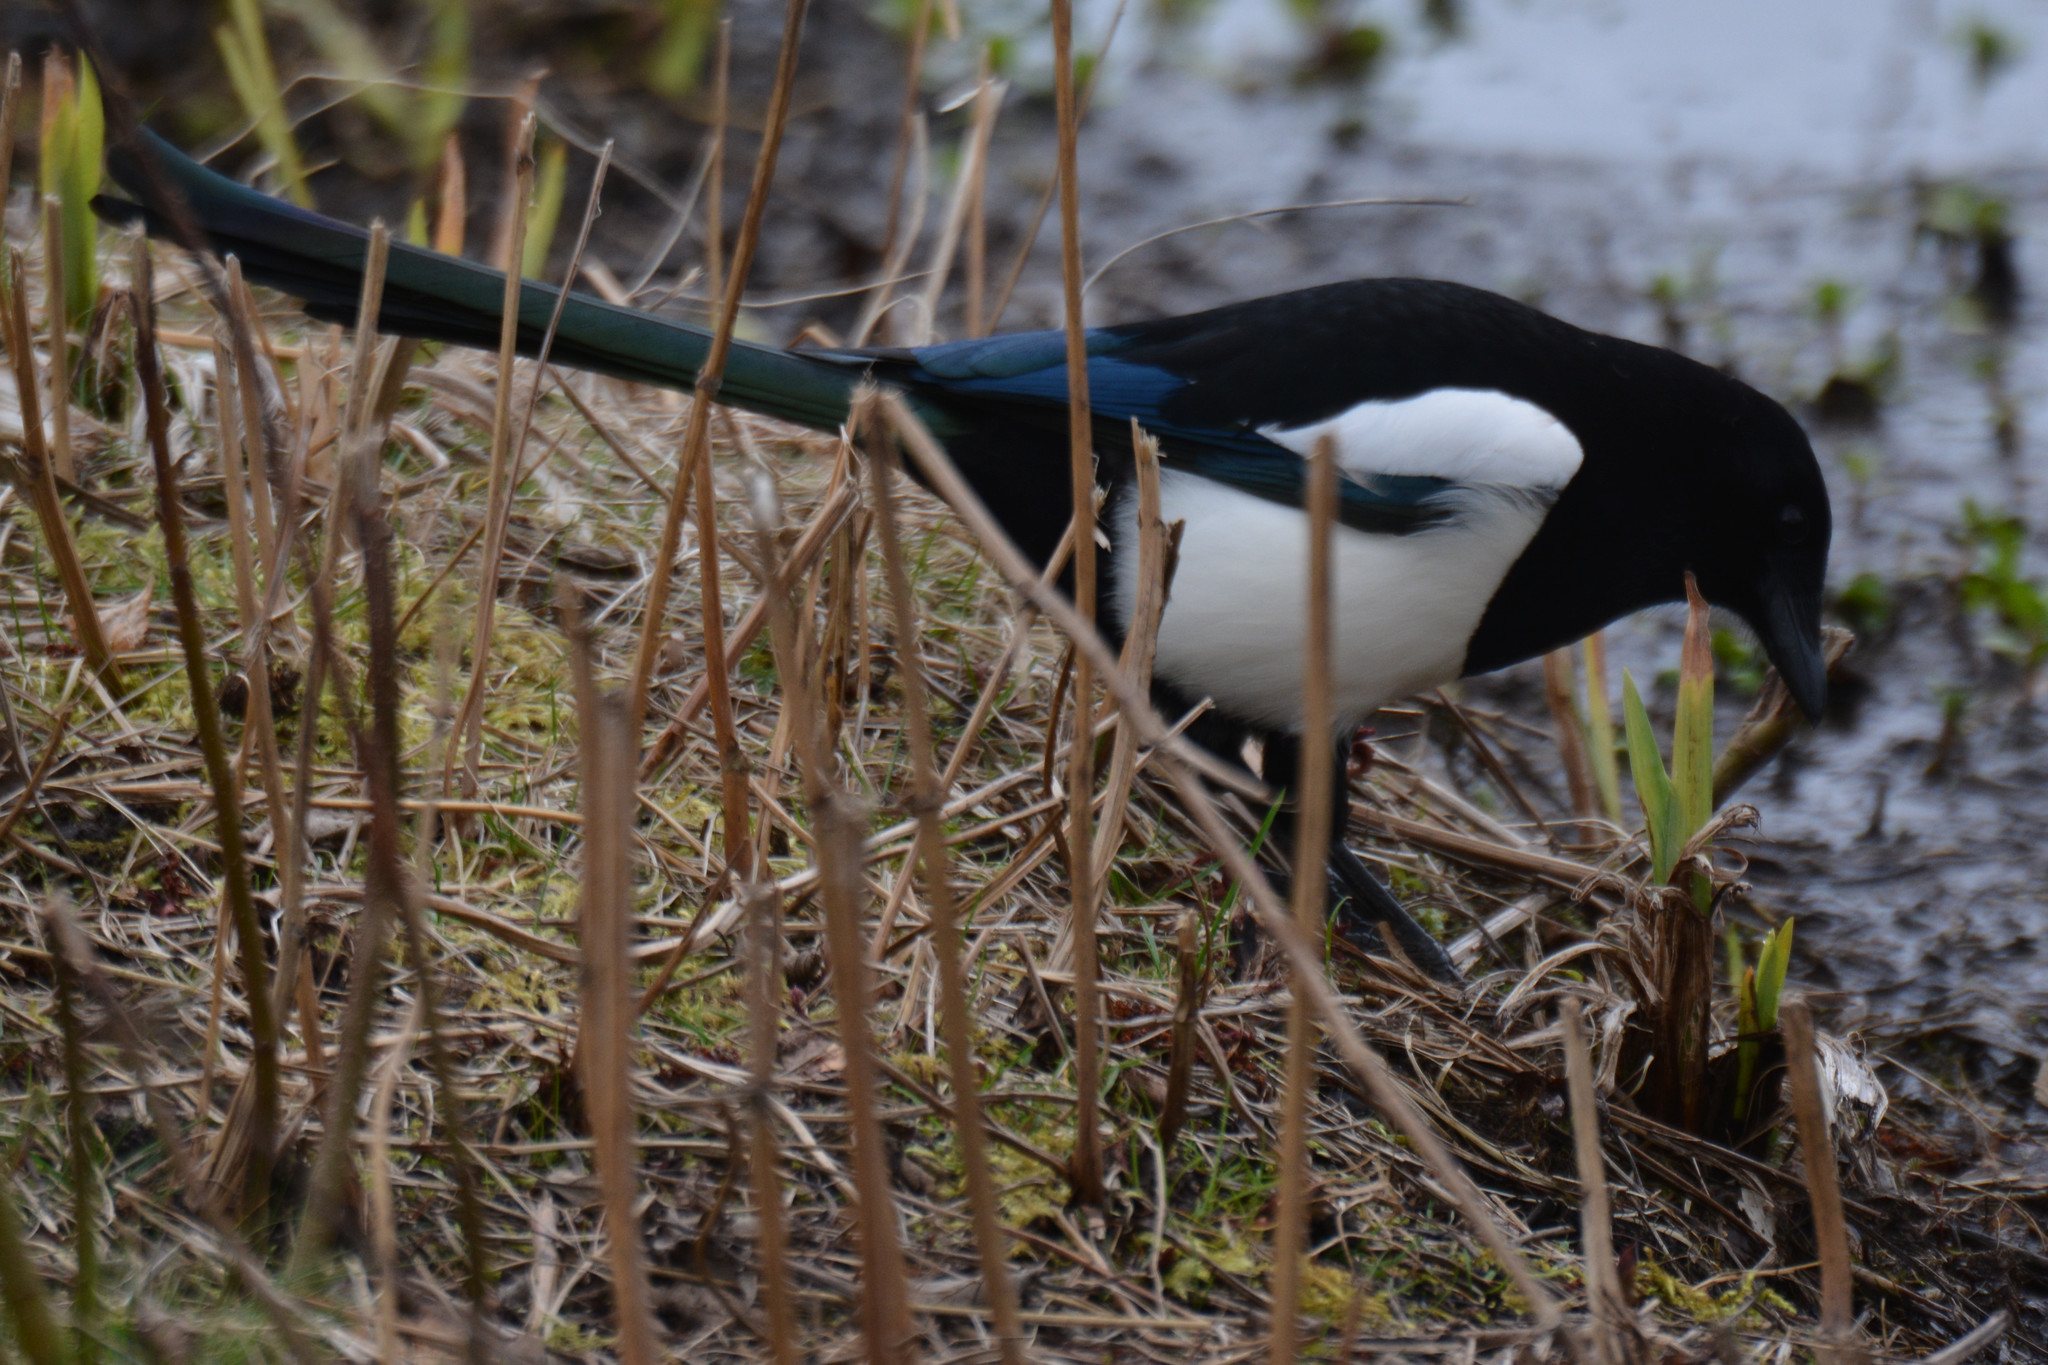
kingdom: Animalia
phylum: Chordata
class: Aves
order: Passeriformes
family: Corvidae
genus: Pica
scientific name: Pica pica
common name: Eurasian magpie
